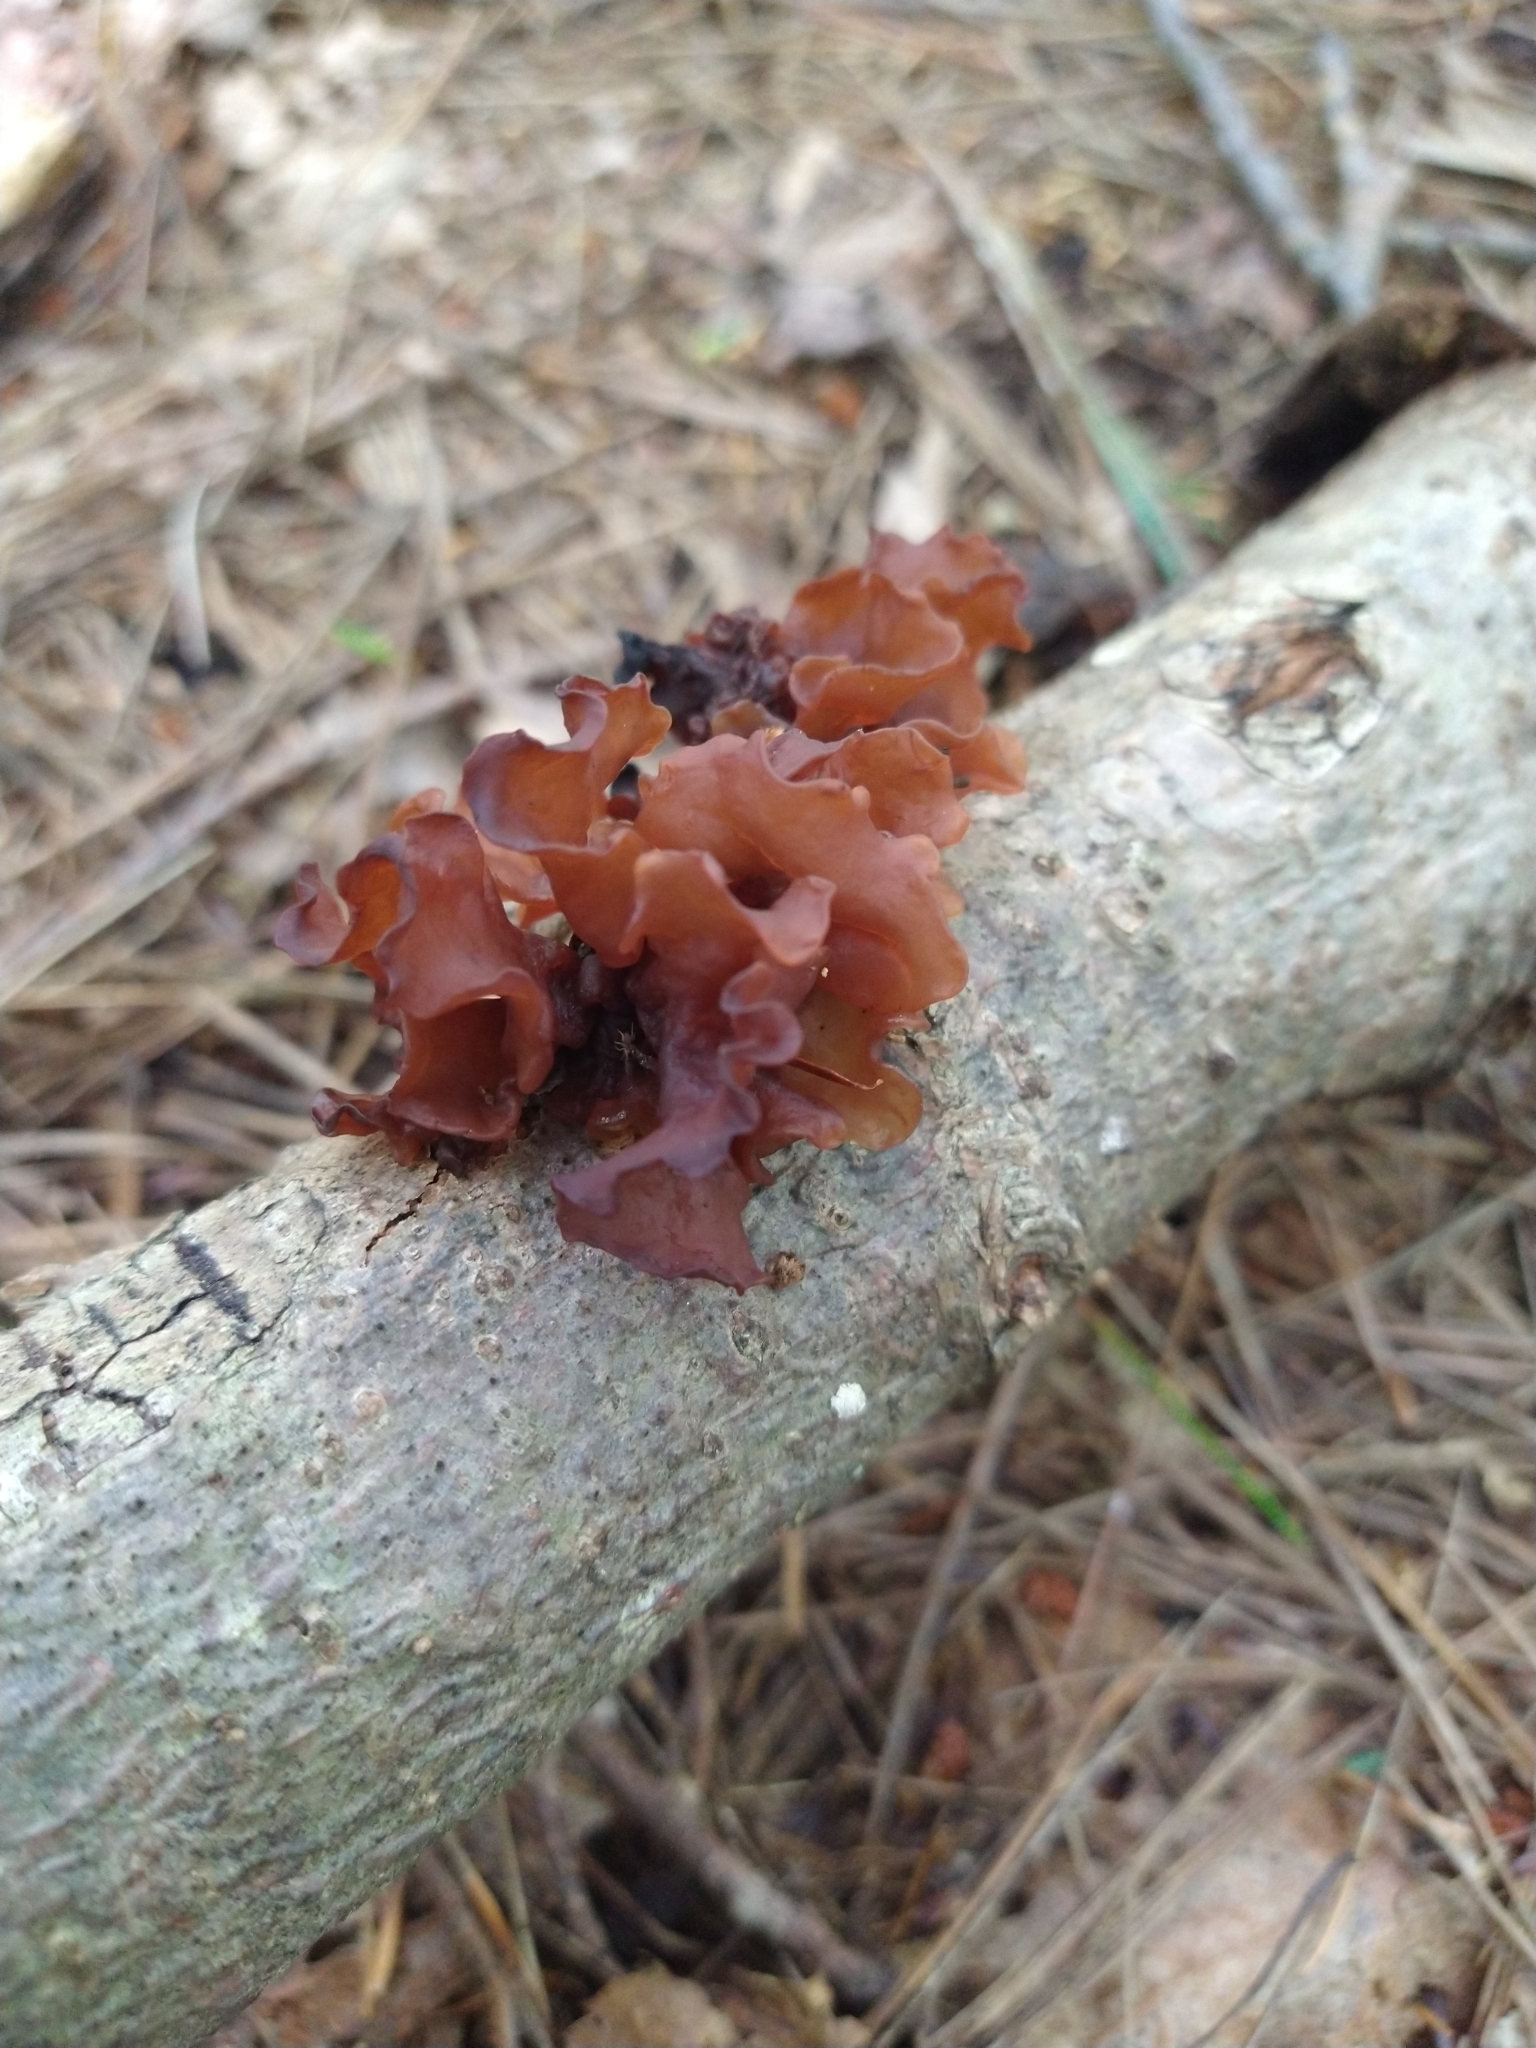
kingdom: Fungi
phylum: Basidiomycota
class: Tremellomycetes
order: Tremellales
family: Tremellaceae
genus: Phaeotremella
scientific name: Phaeotremella foliacea
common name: Leafy brain
